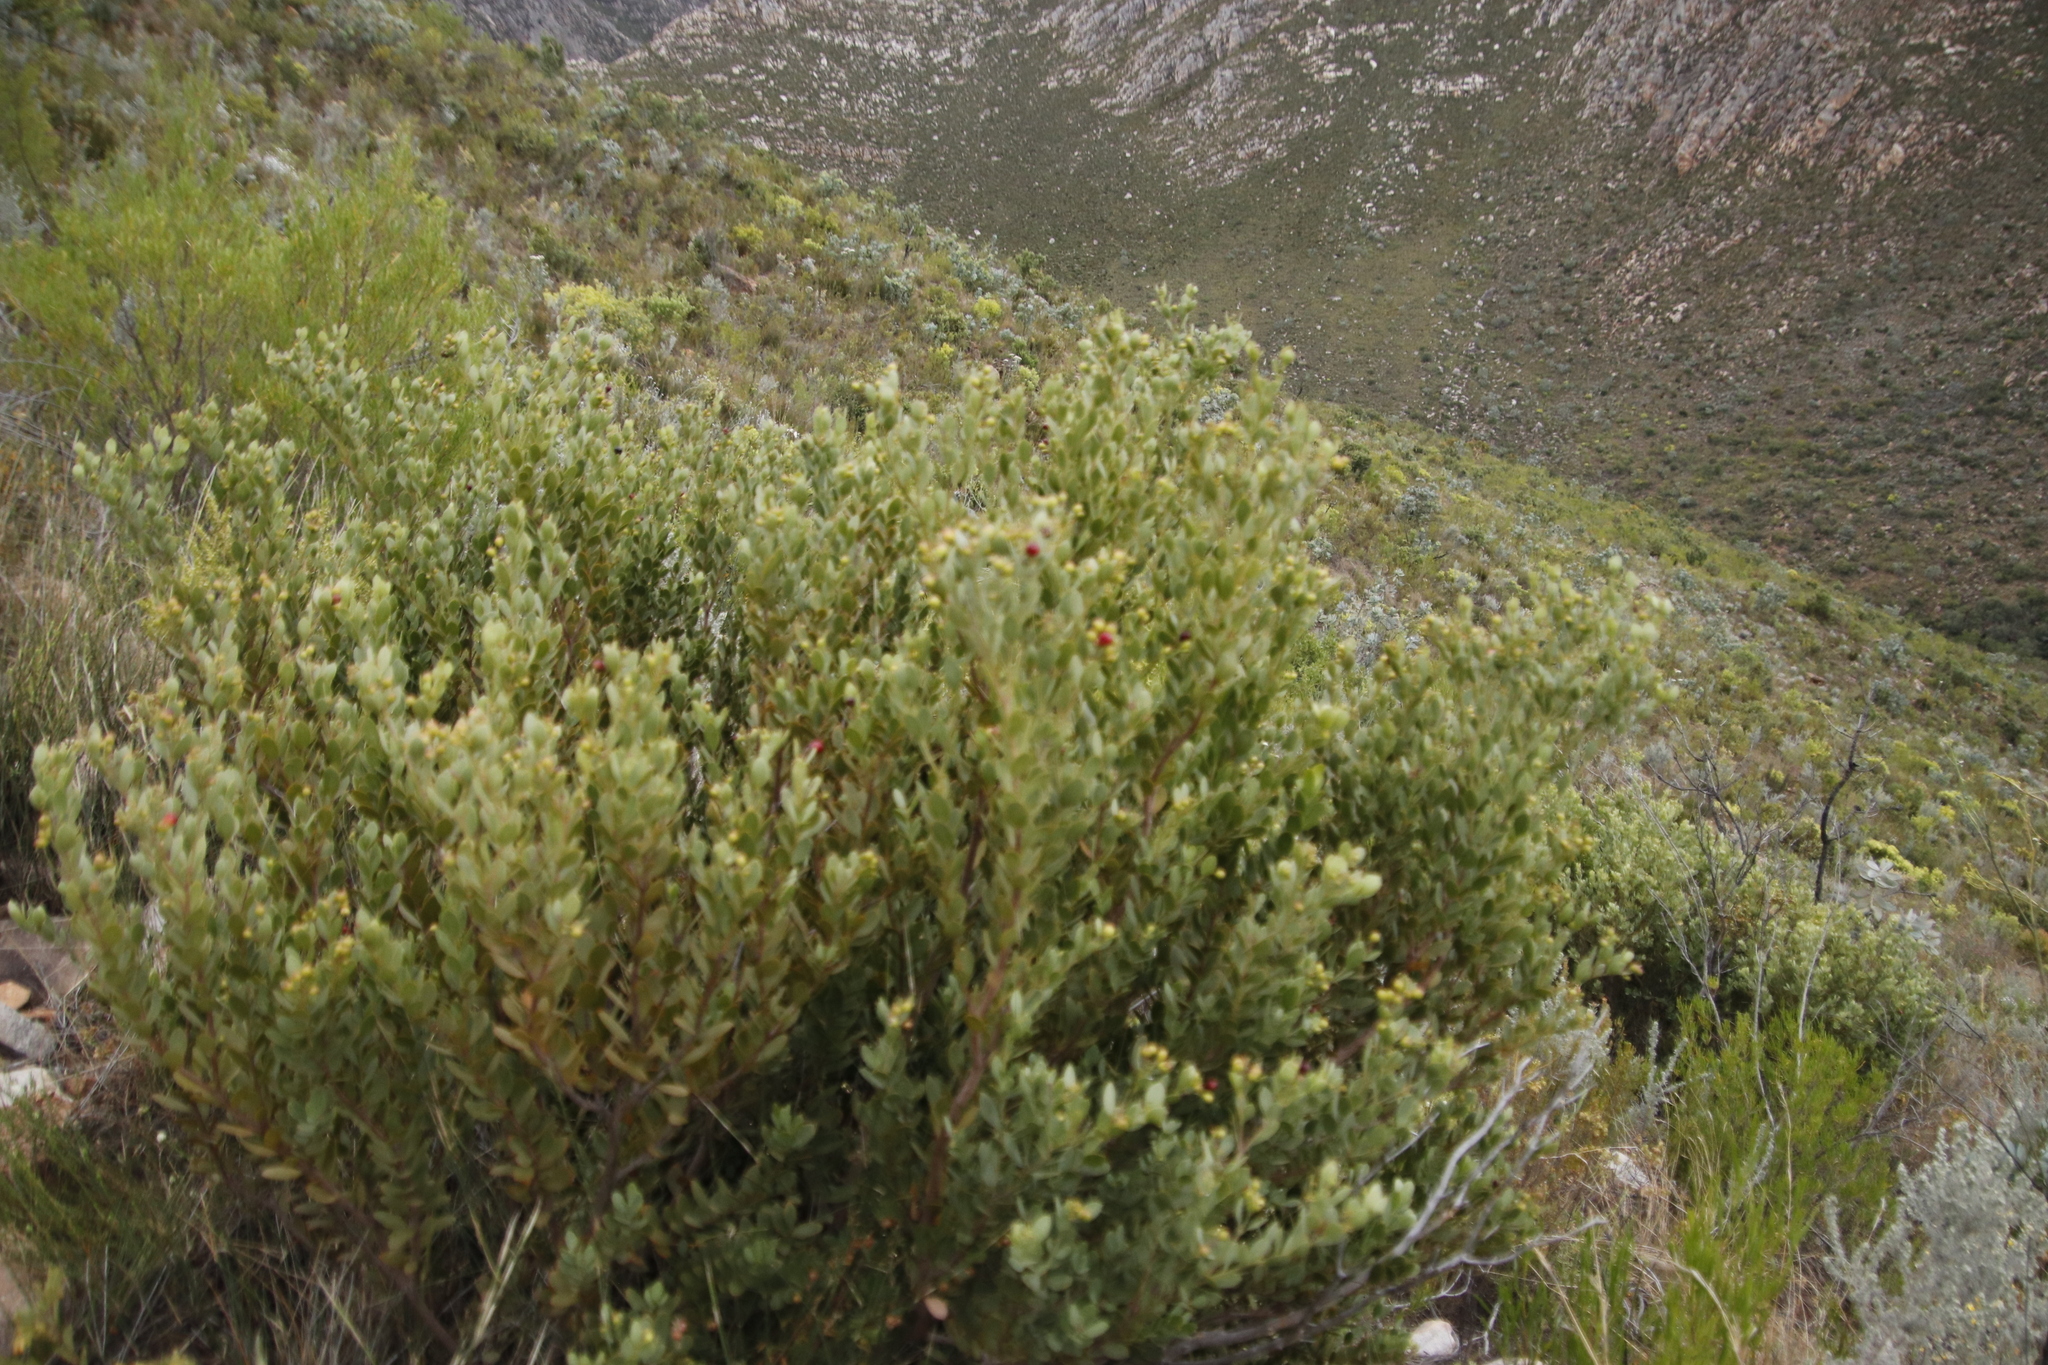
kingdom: Plantae
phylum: Tracheophyta
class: Magnoliopsida
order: Santalales
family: Santalaceae
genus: Osyris
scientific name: Osyris compressa
